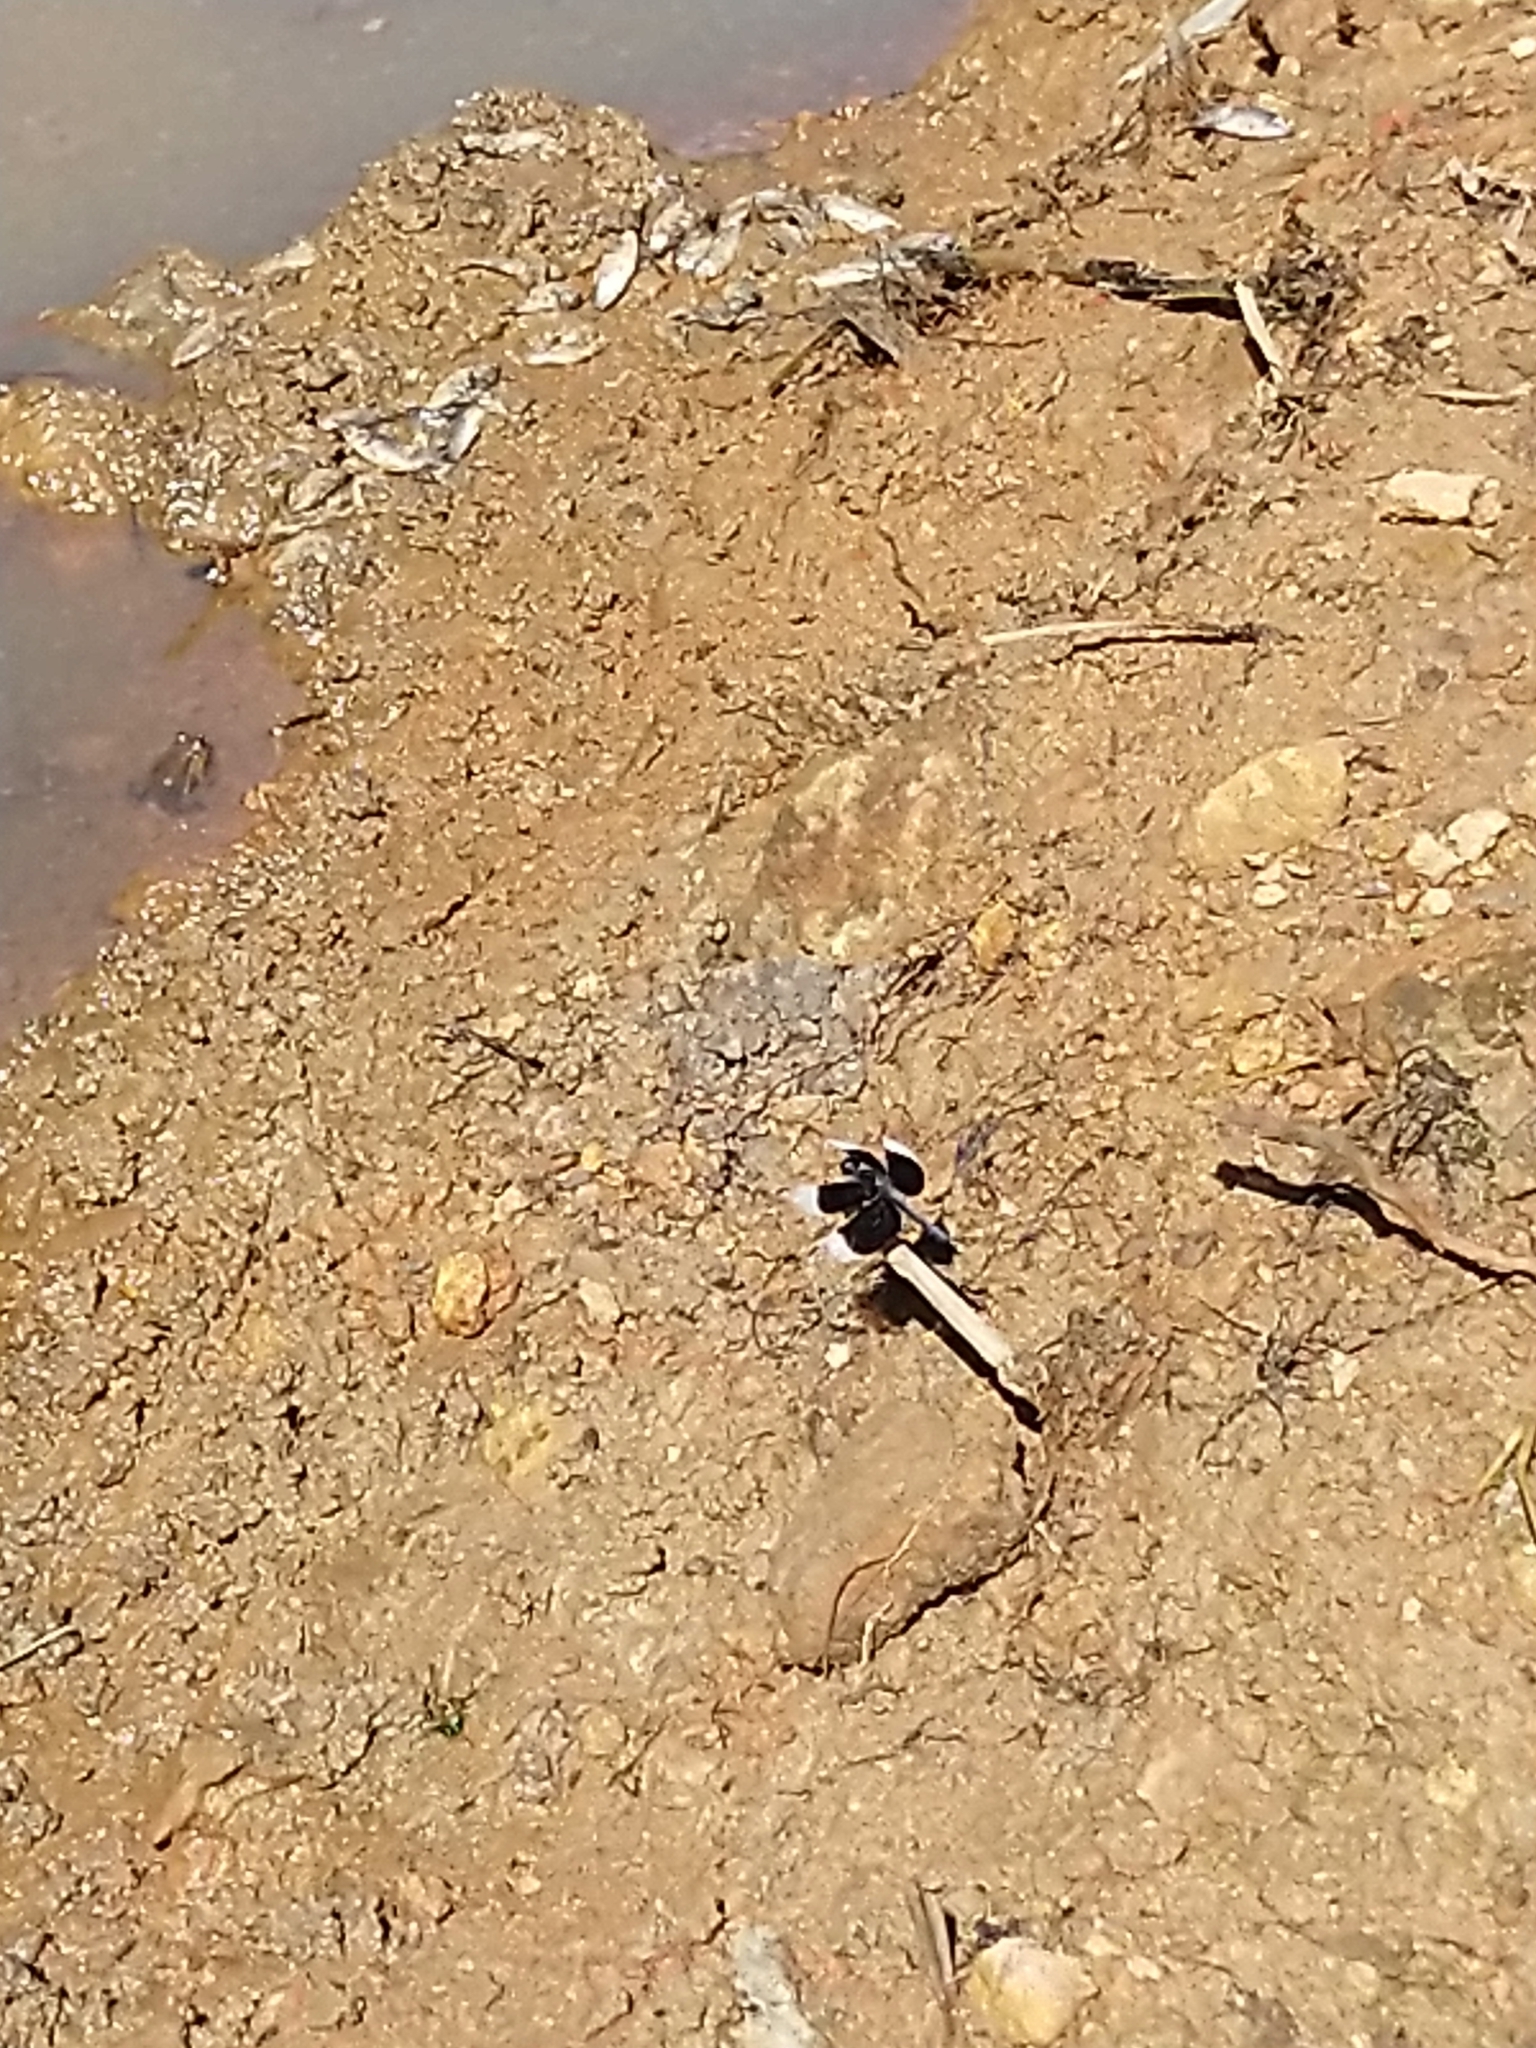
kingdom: Animalia
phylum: Arthropoda
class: Insecta
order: Odonata
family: Libellulidae
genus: Neurothemis
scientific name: Neurothemis tullia
